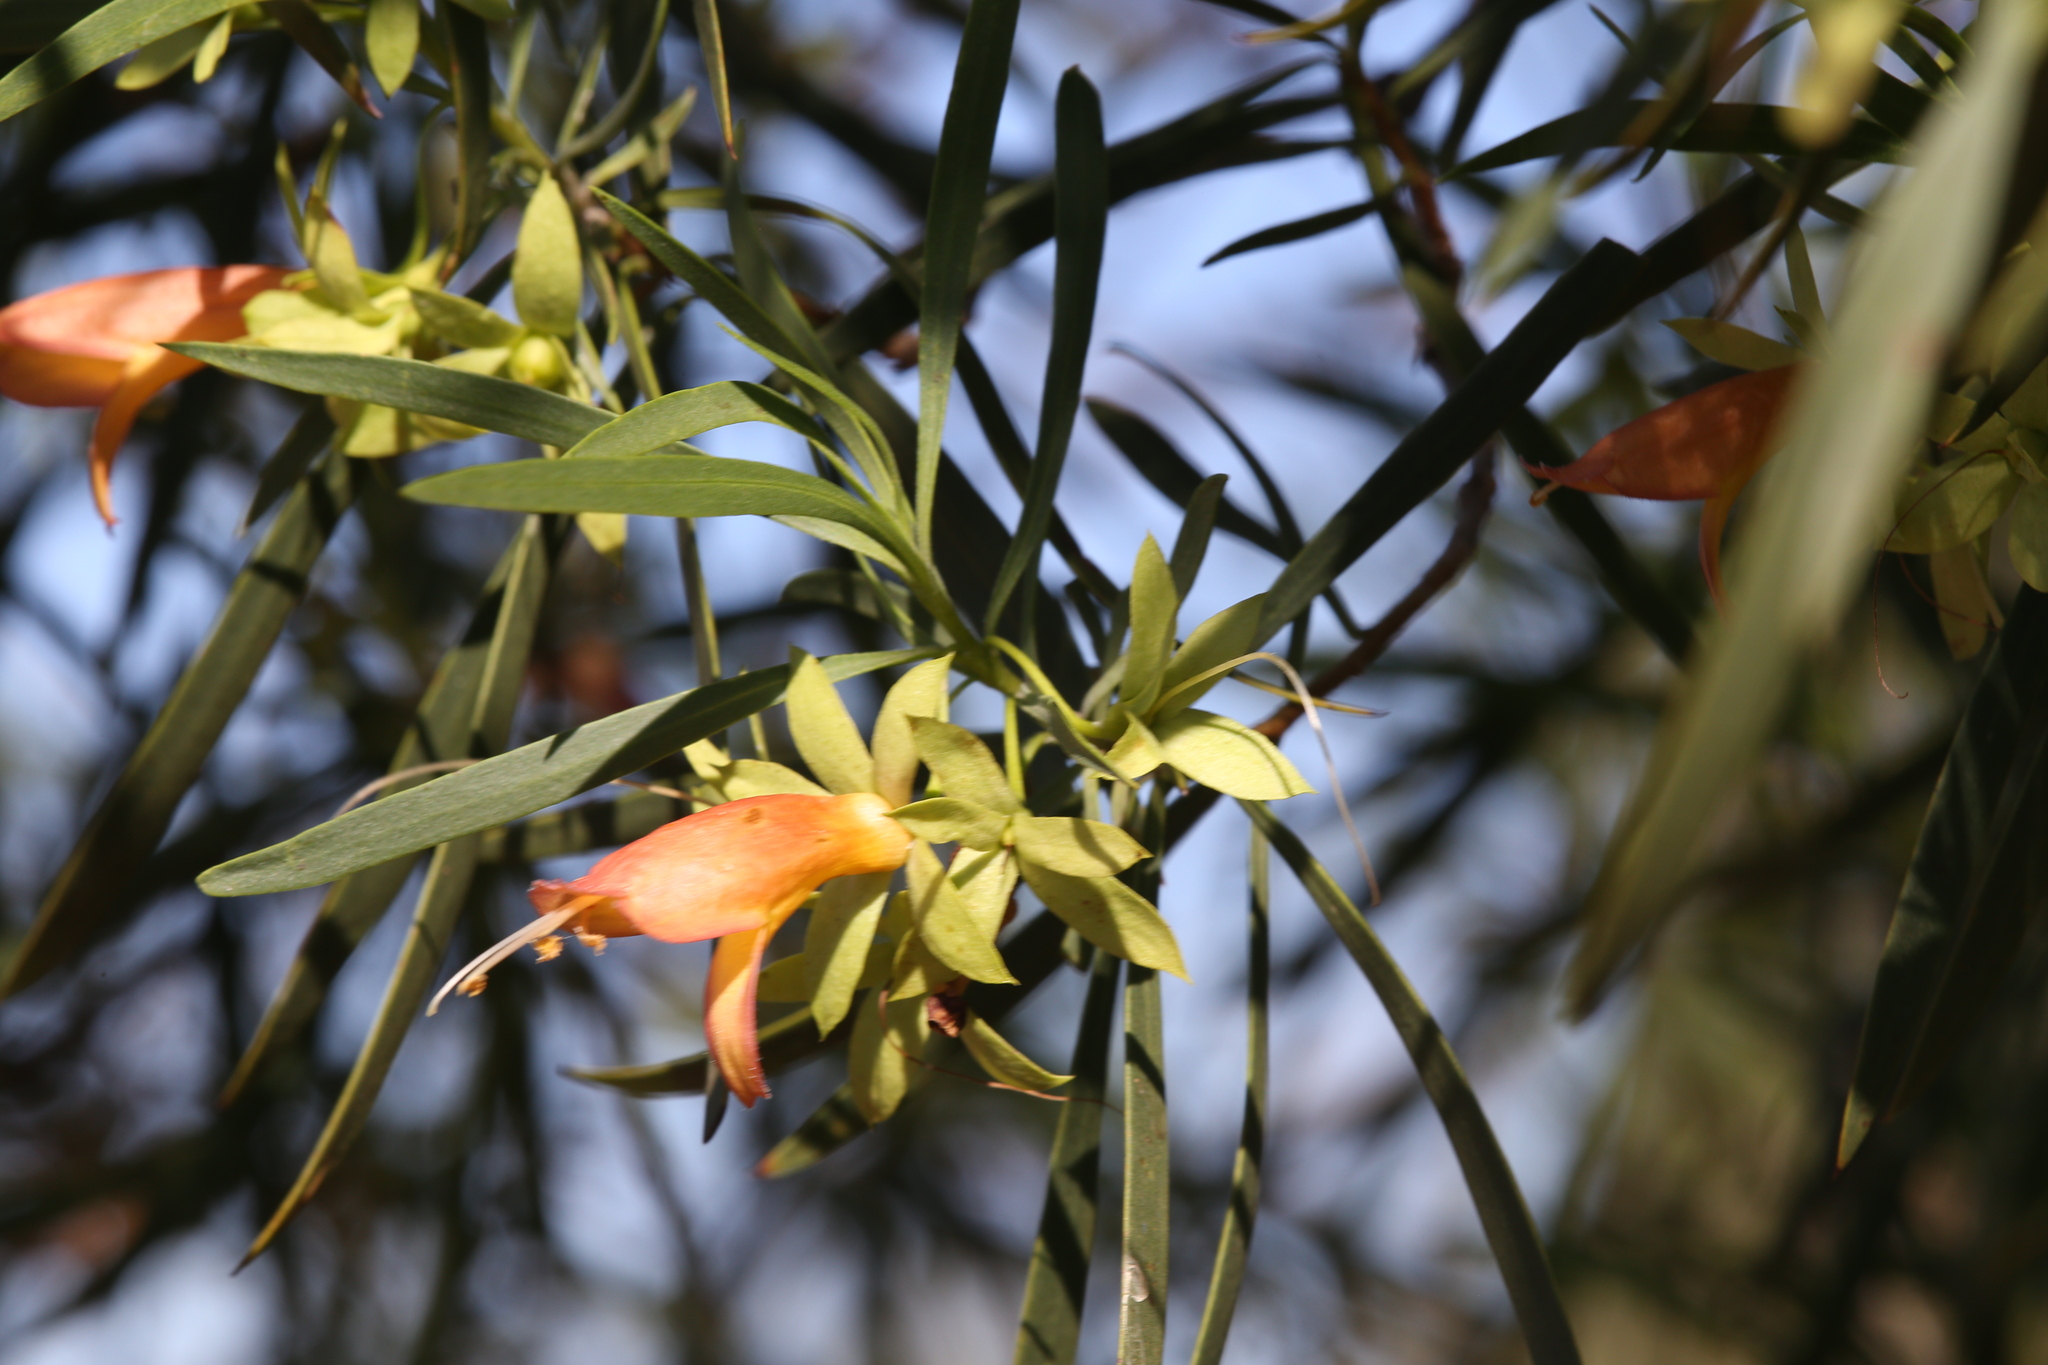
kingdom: Plantae
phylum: Tracheophyta
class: Magnoliopsida
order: Lamiales
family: Scrophulariaceae
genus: Eremophila
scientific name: Eremophila oldfieldii
